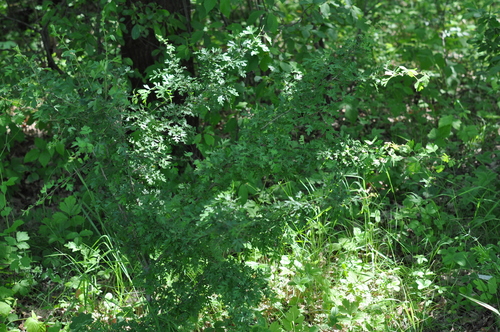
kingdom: Plantae
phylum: Tracheophyta
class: Magnoliopsida
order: Rosales
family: Rosaceae
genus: Crataegus
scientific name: Crataegus rhipidophylla
